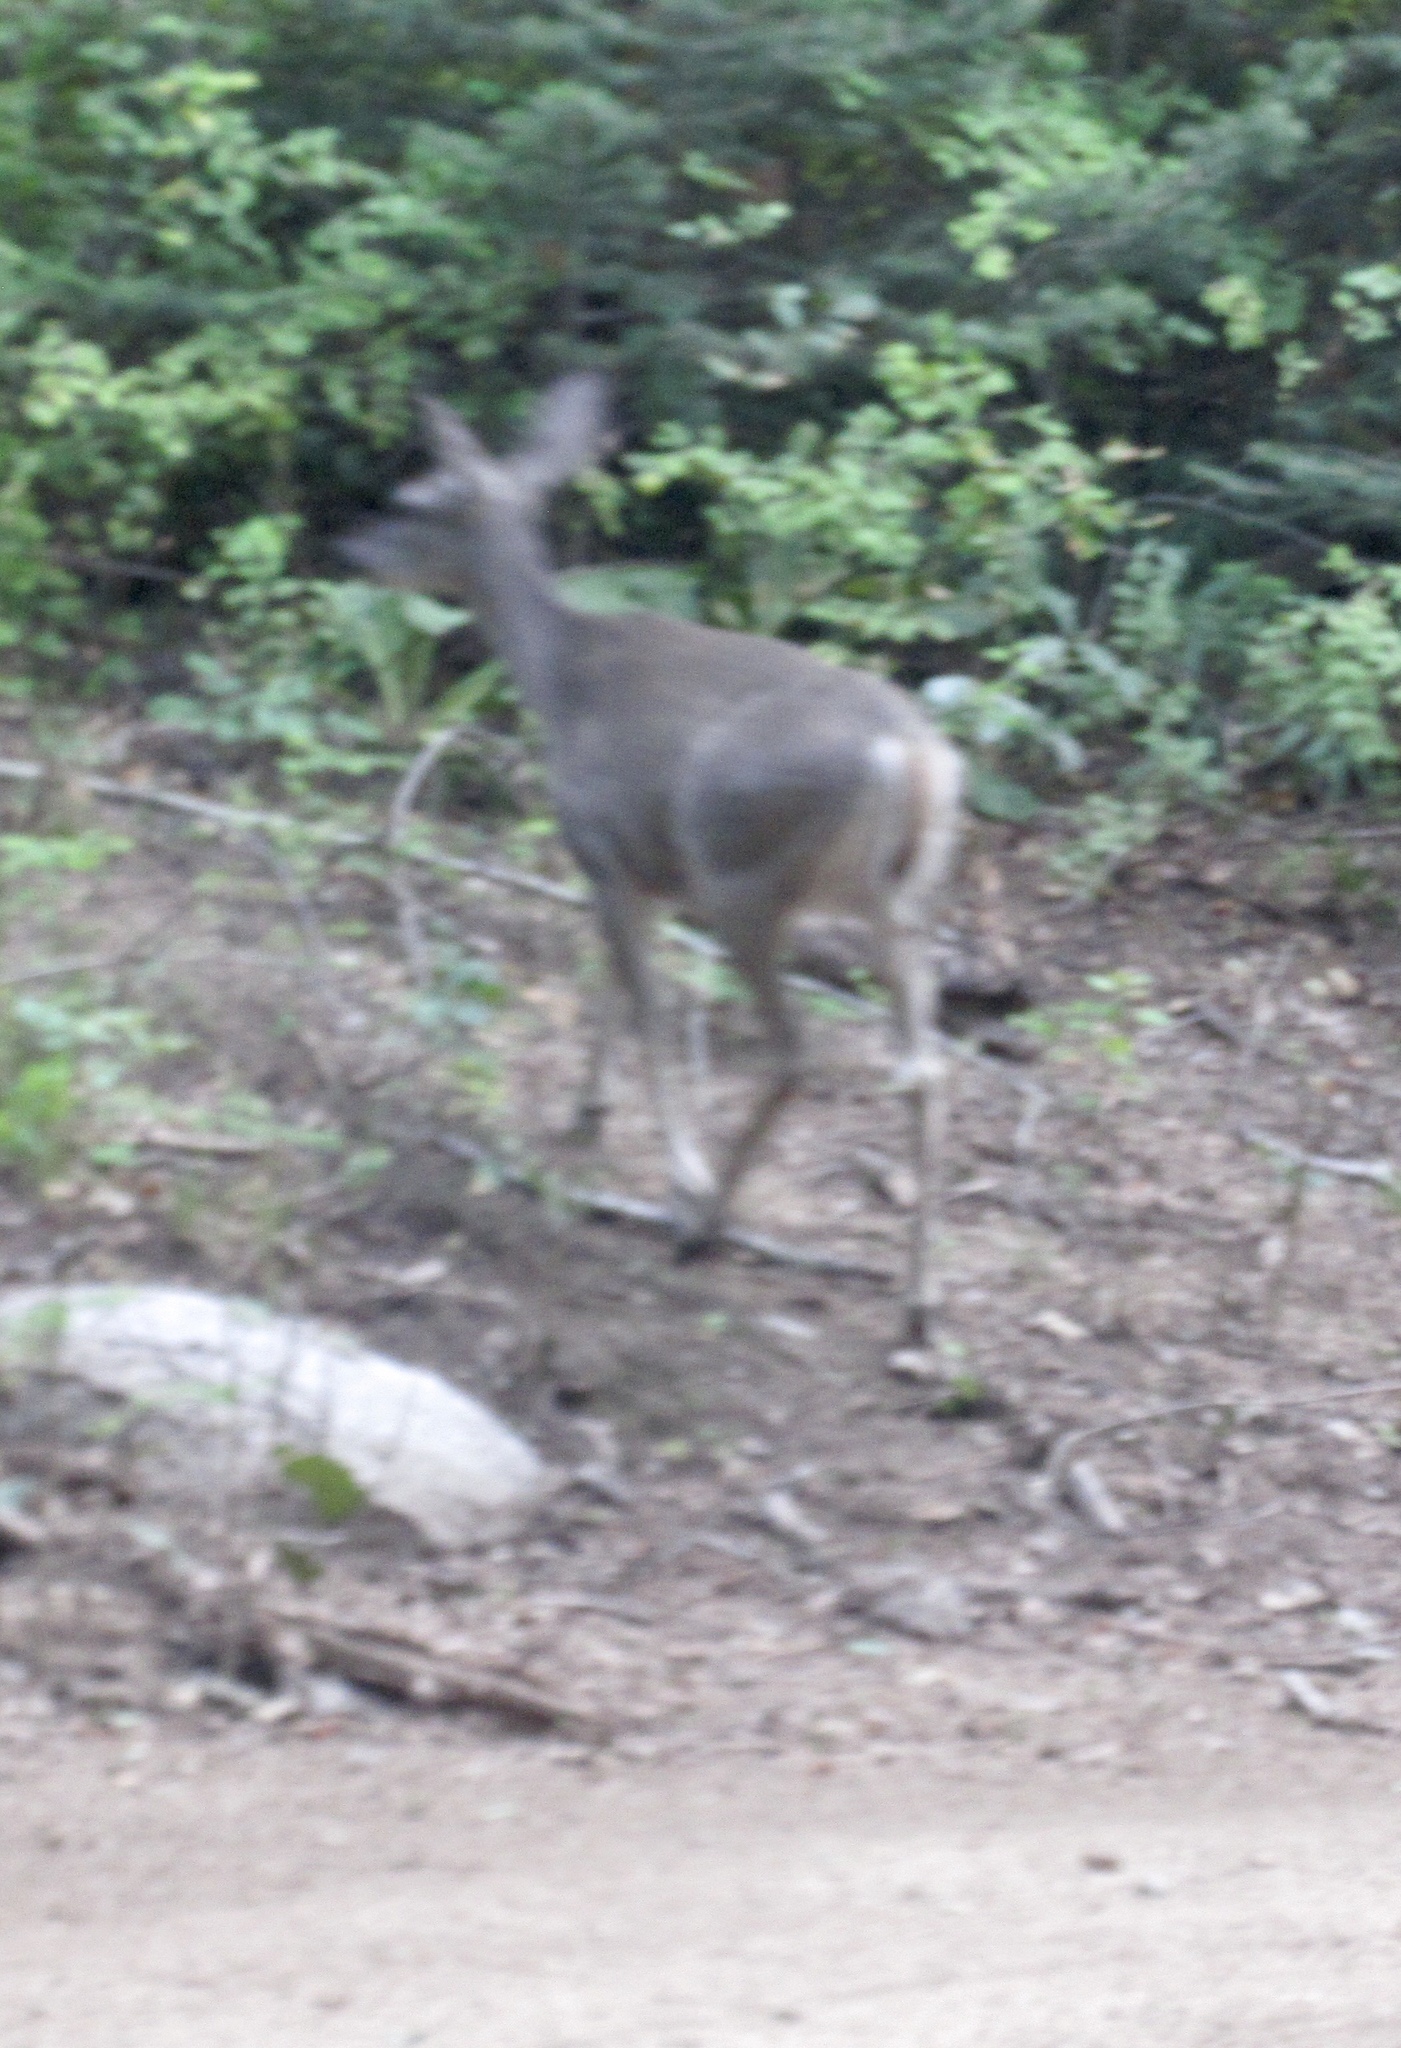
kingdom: Animalia
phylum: Chordata
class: Mammalia
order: Artiodactyla
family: Cervidae
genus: Odocoileus
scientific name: Odocoileus virginianus
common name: White-tailed deer
